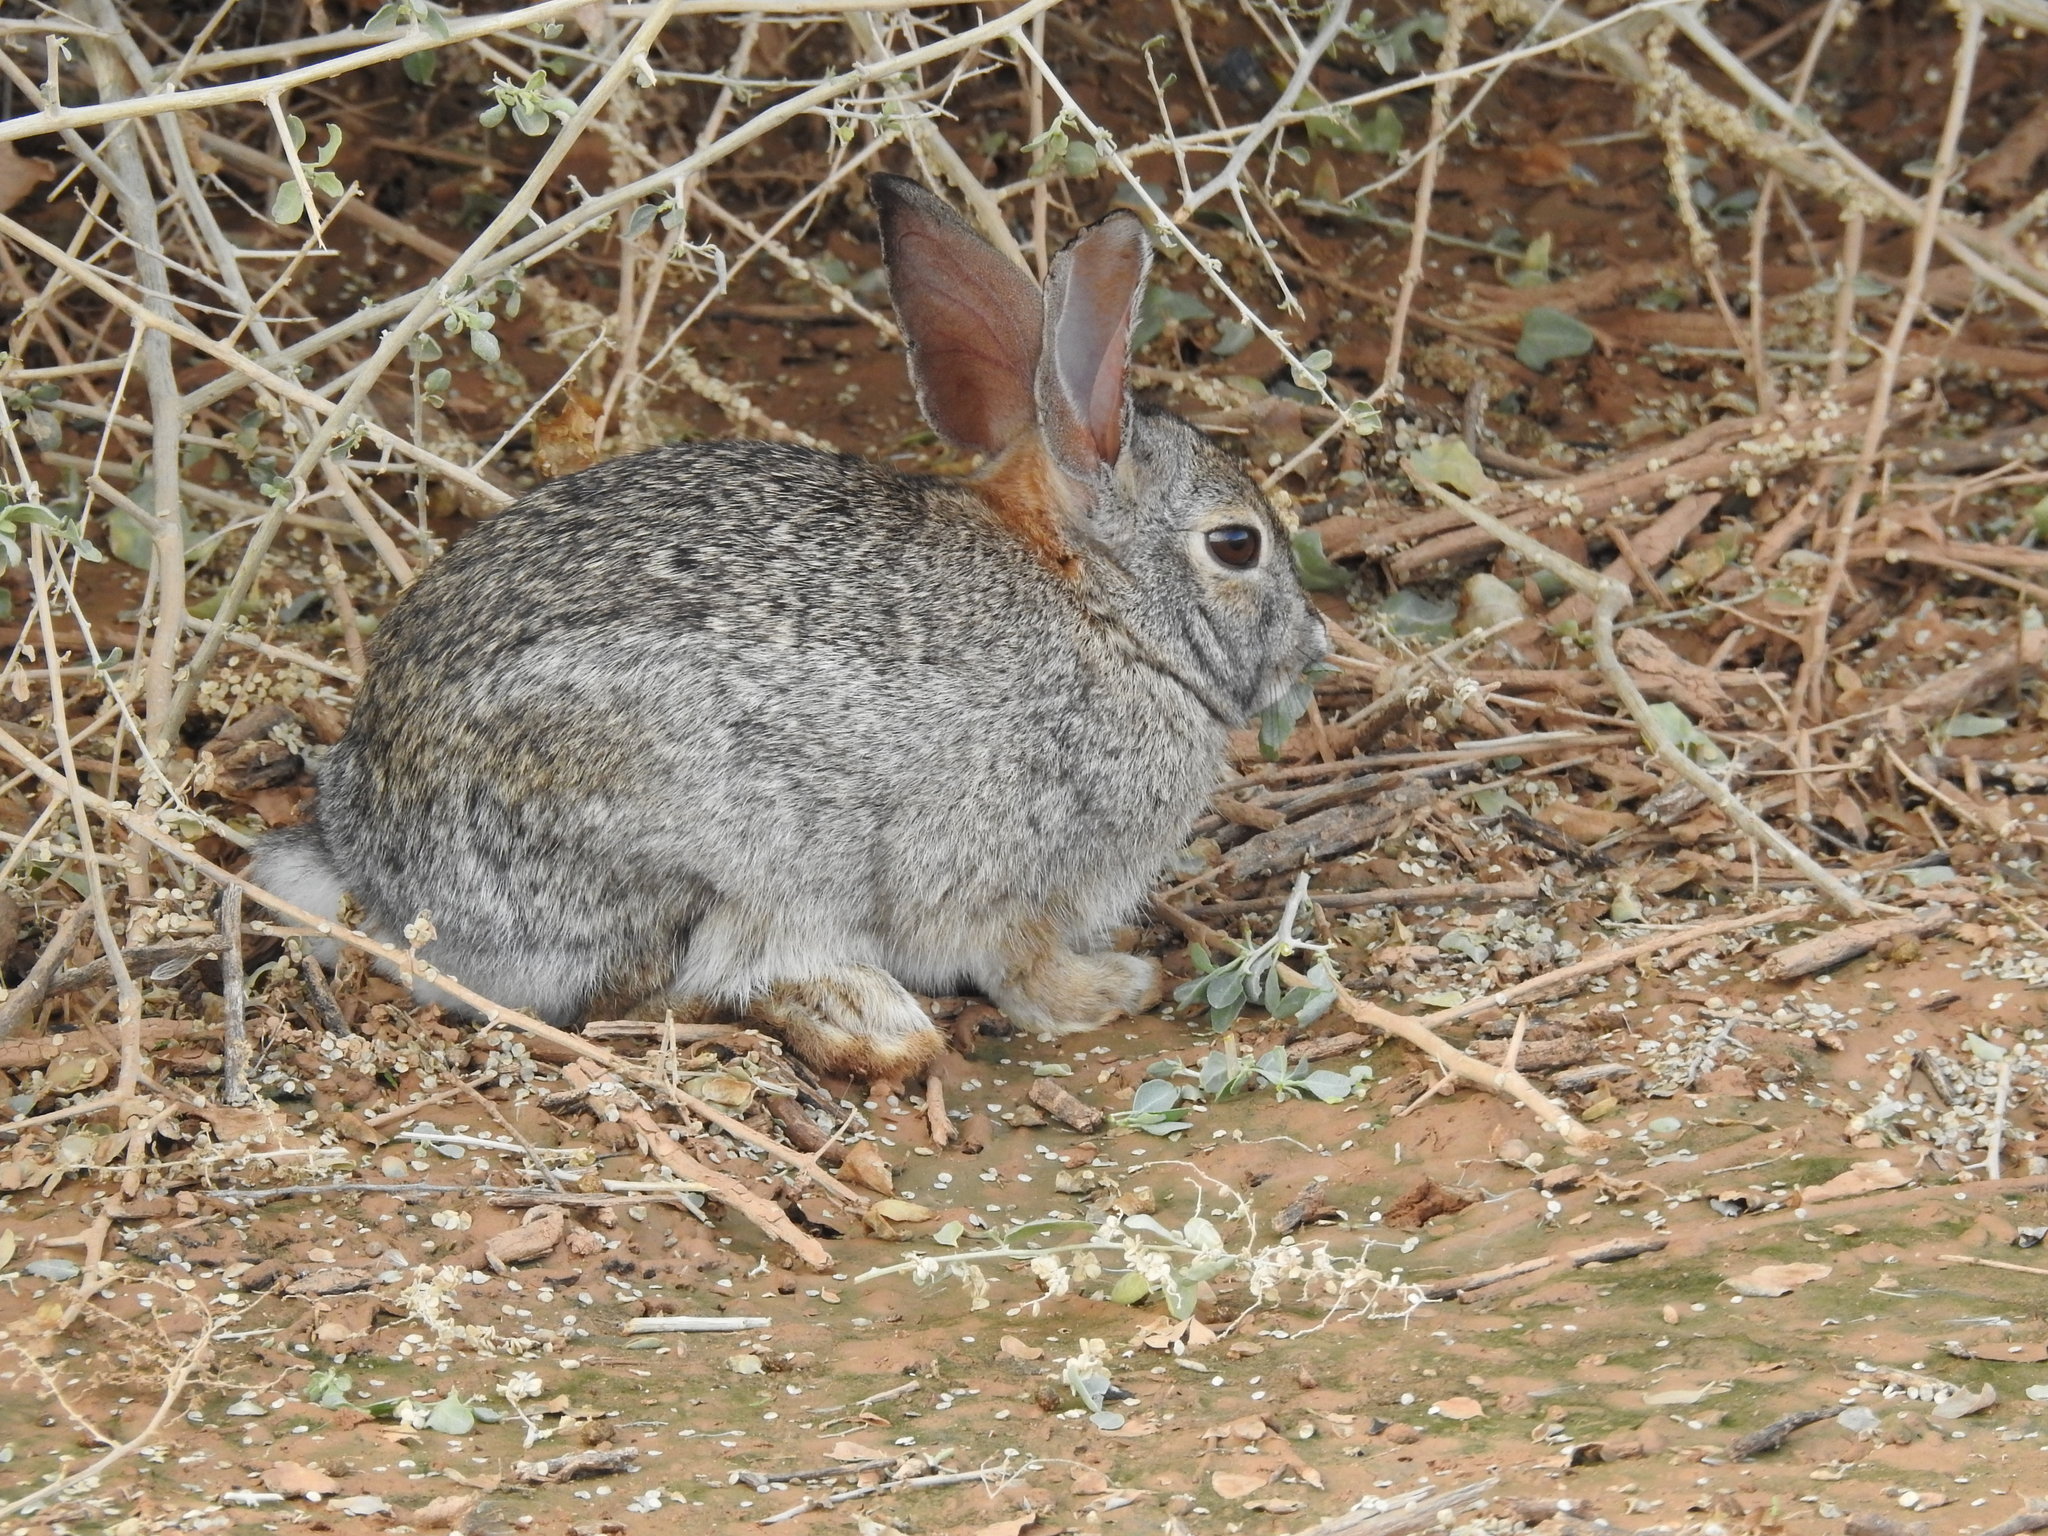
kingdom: Animalia
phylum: Chordata
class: Mammalia
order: Lagomorpha
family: Leporidae
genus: Sylvilagus
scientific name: Sylvilagus audubonii
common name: Desert cottontail
